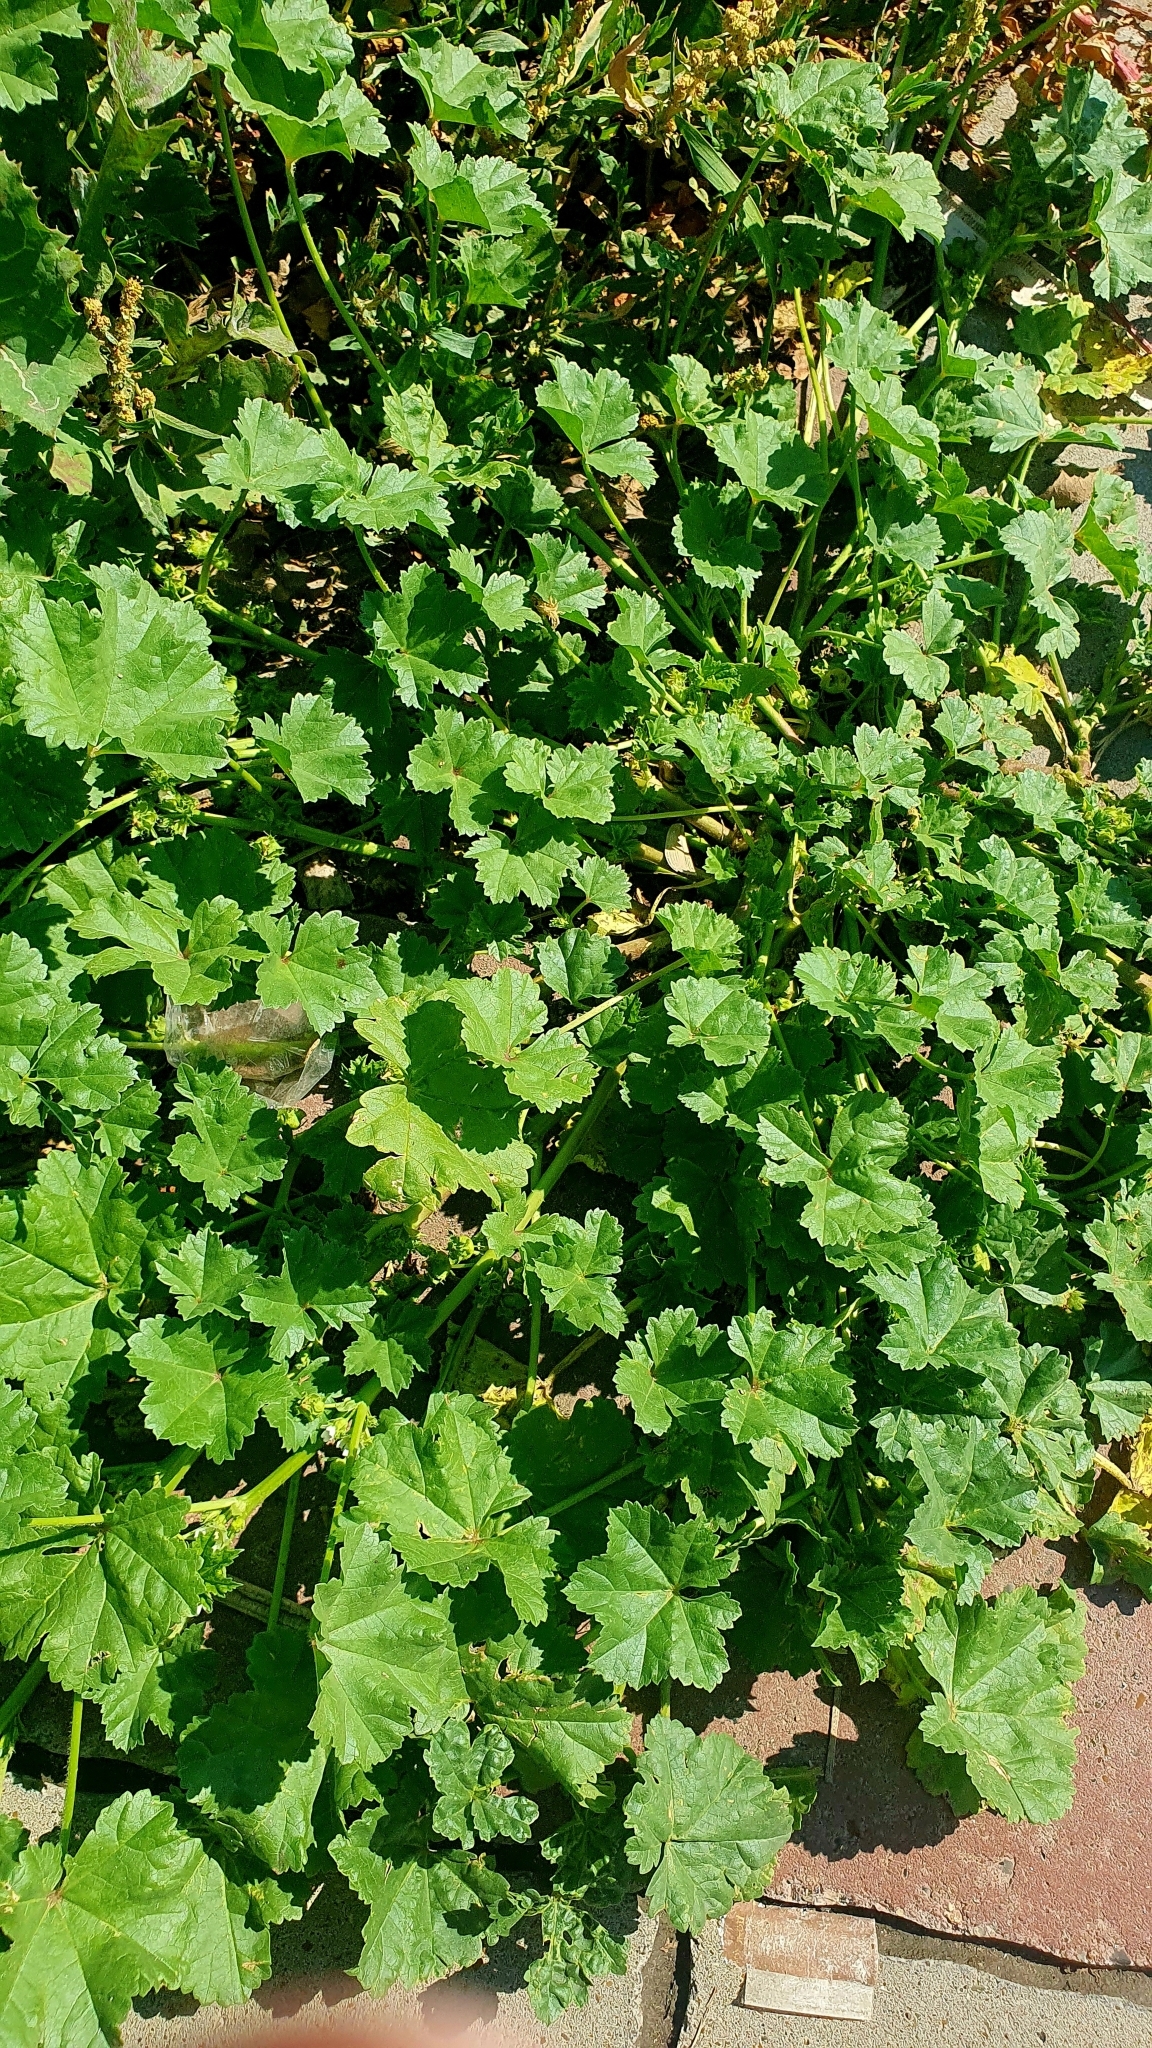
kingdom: Plantae
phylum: Tracheophyta
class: Magnoliopsida
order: Malvales
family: Malvaceae
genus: Malva
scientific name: Malva pusilla
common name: Small mallow
